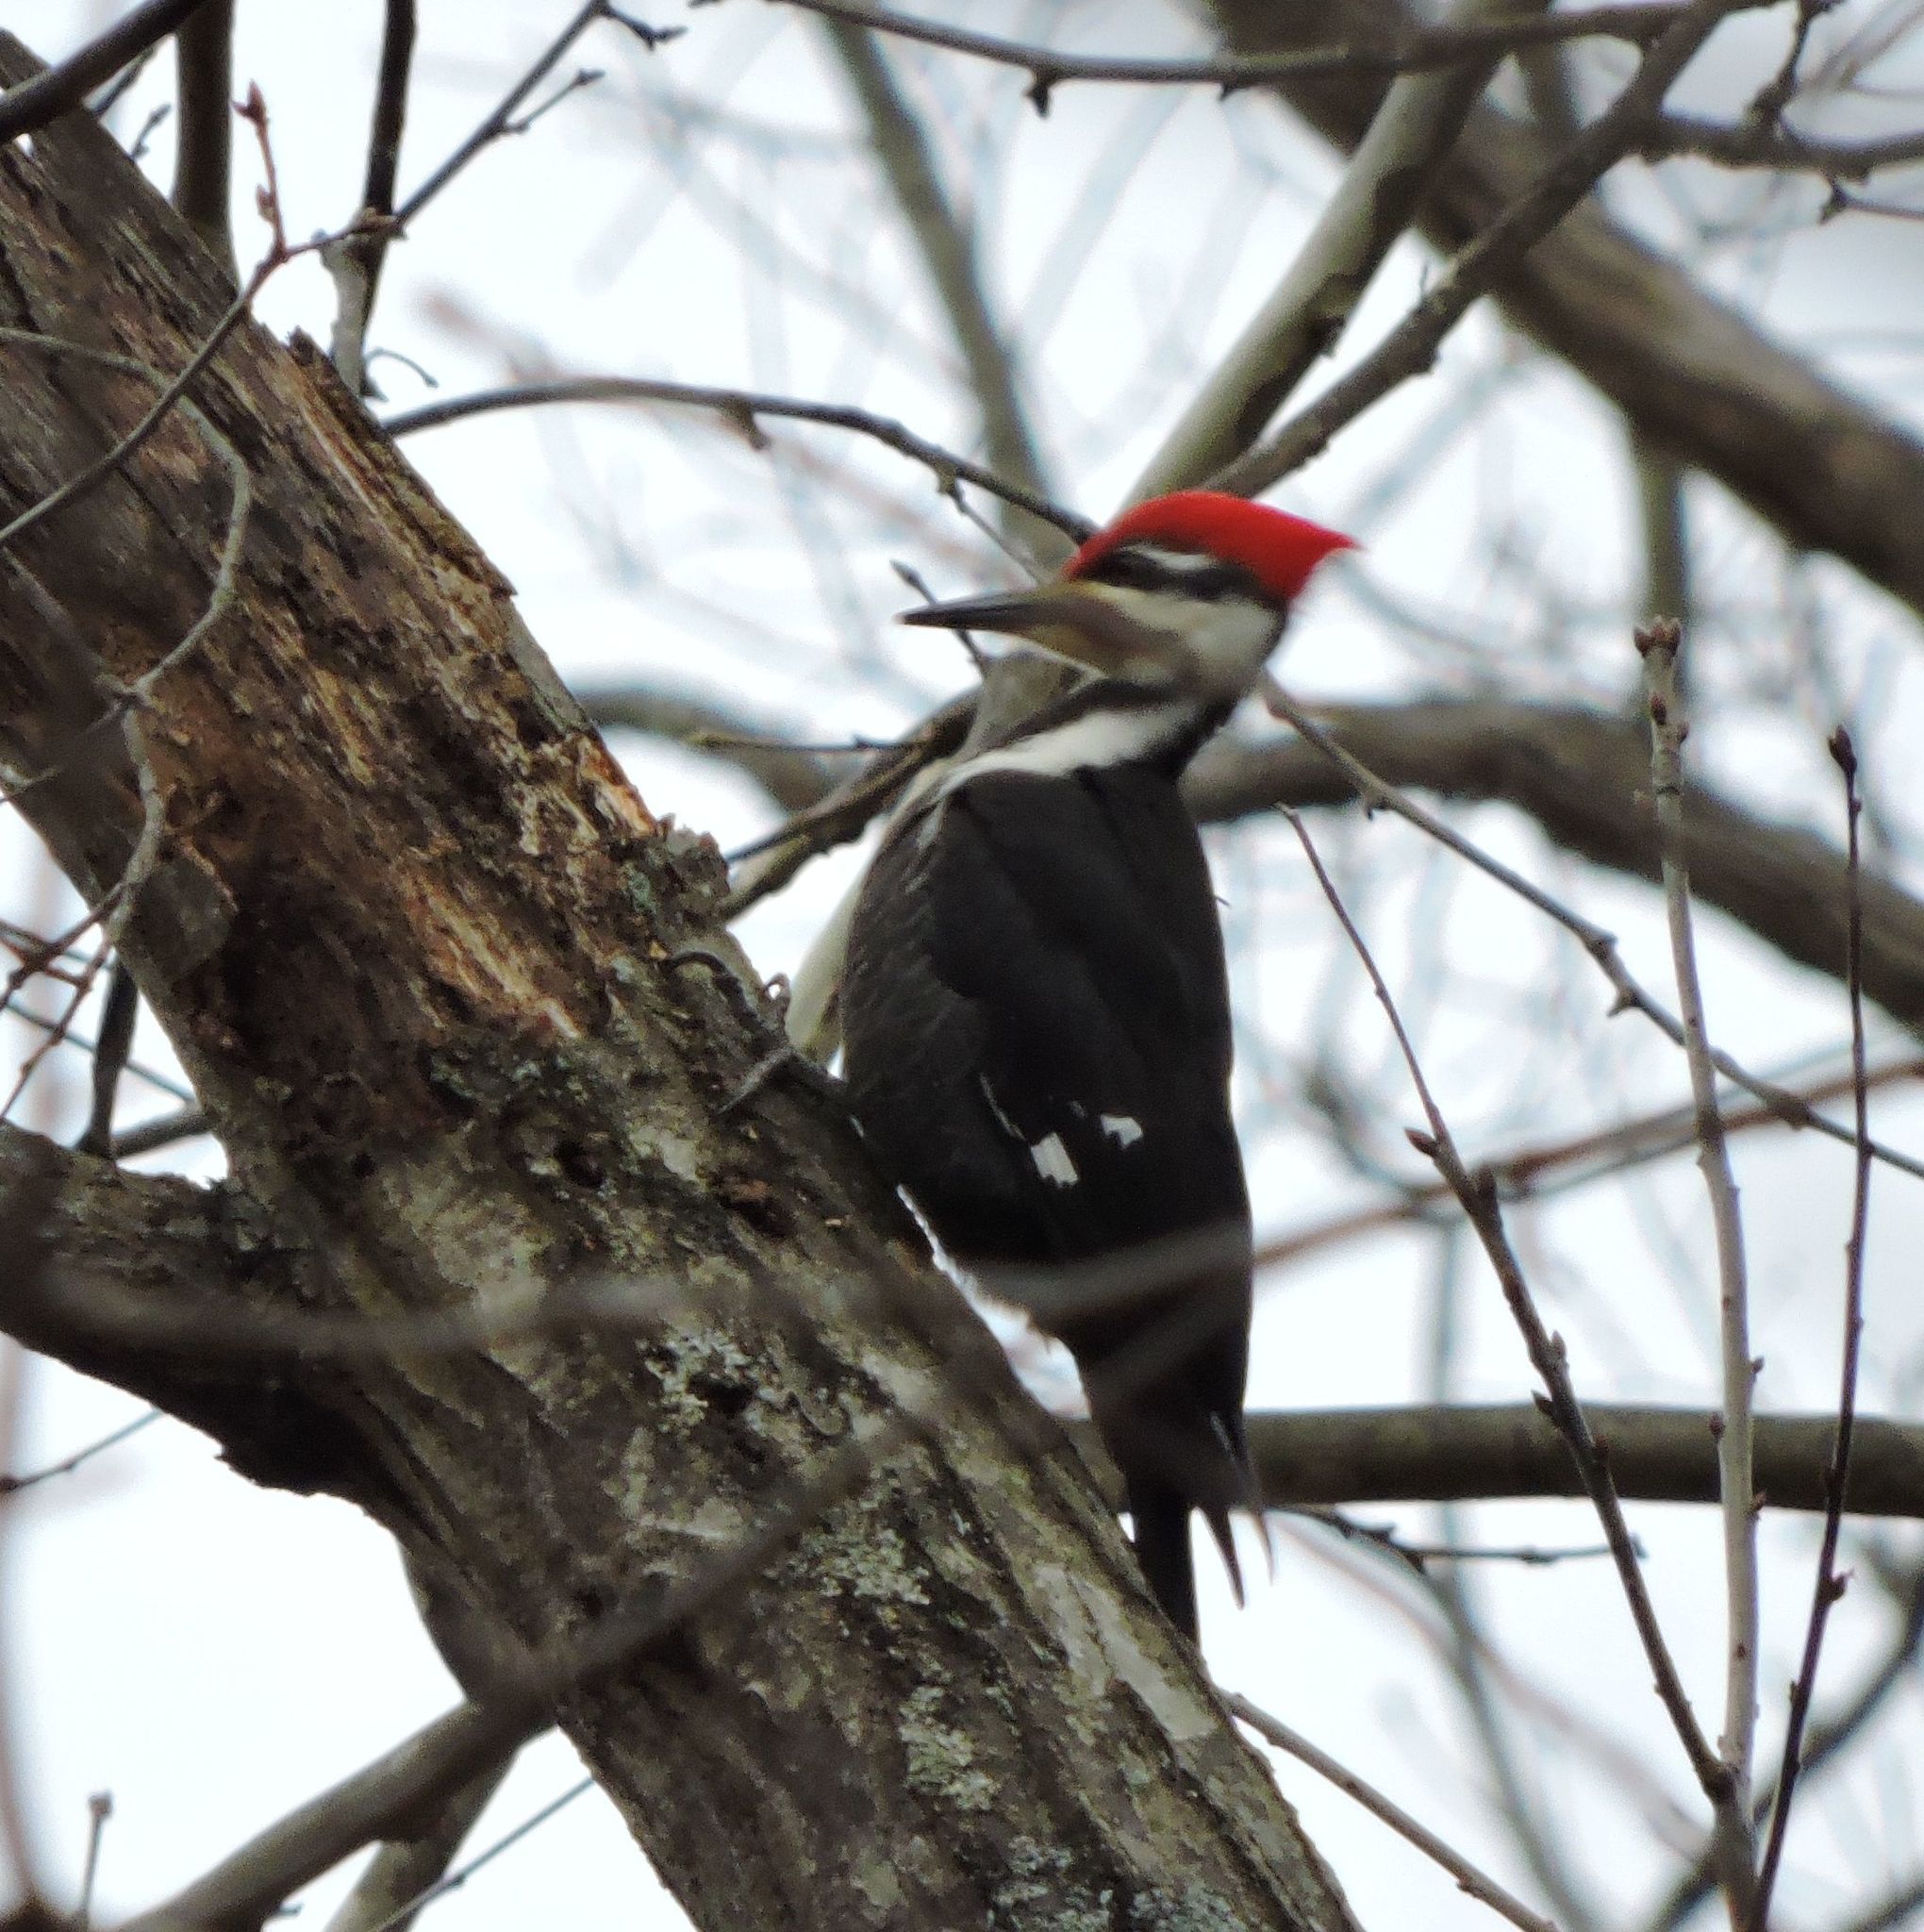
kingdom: Animalia
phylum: Chordata
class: Aves
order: Piciformes
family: Picidae
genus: Dryocopus
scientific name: Dryocopus pileatus
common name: Pileated woodpecker
